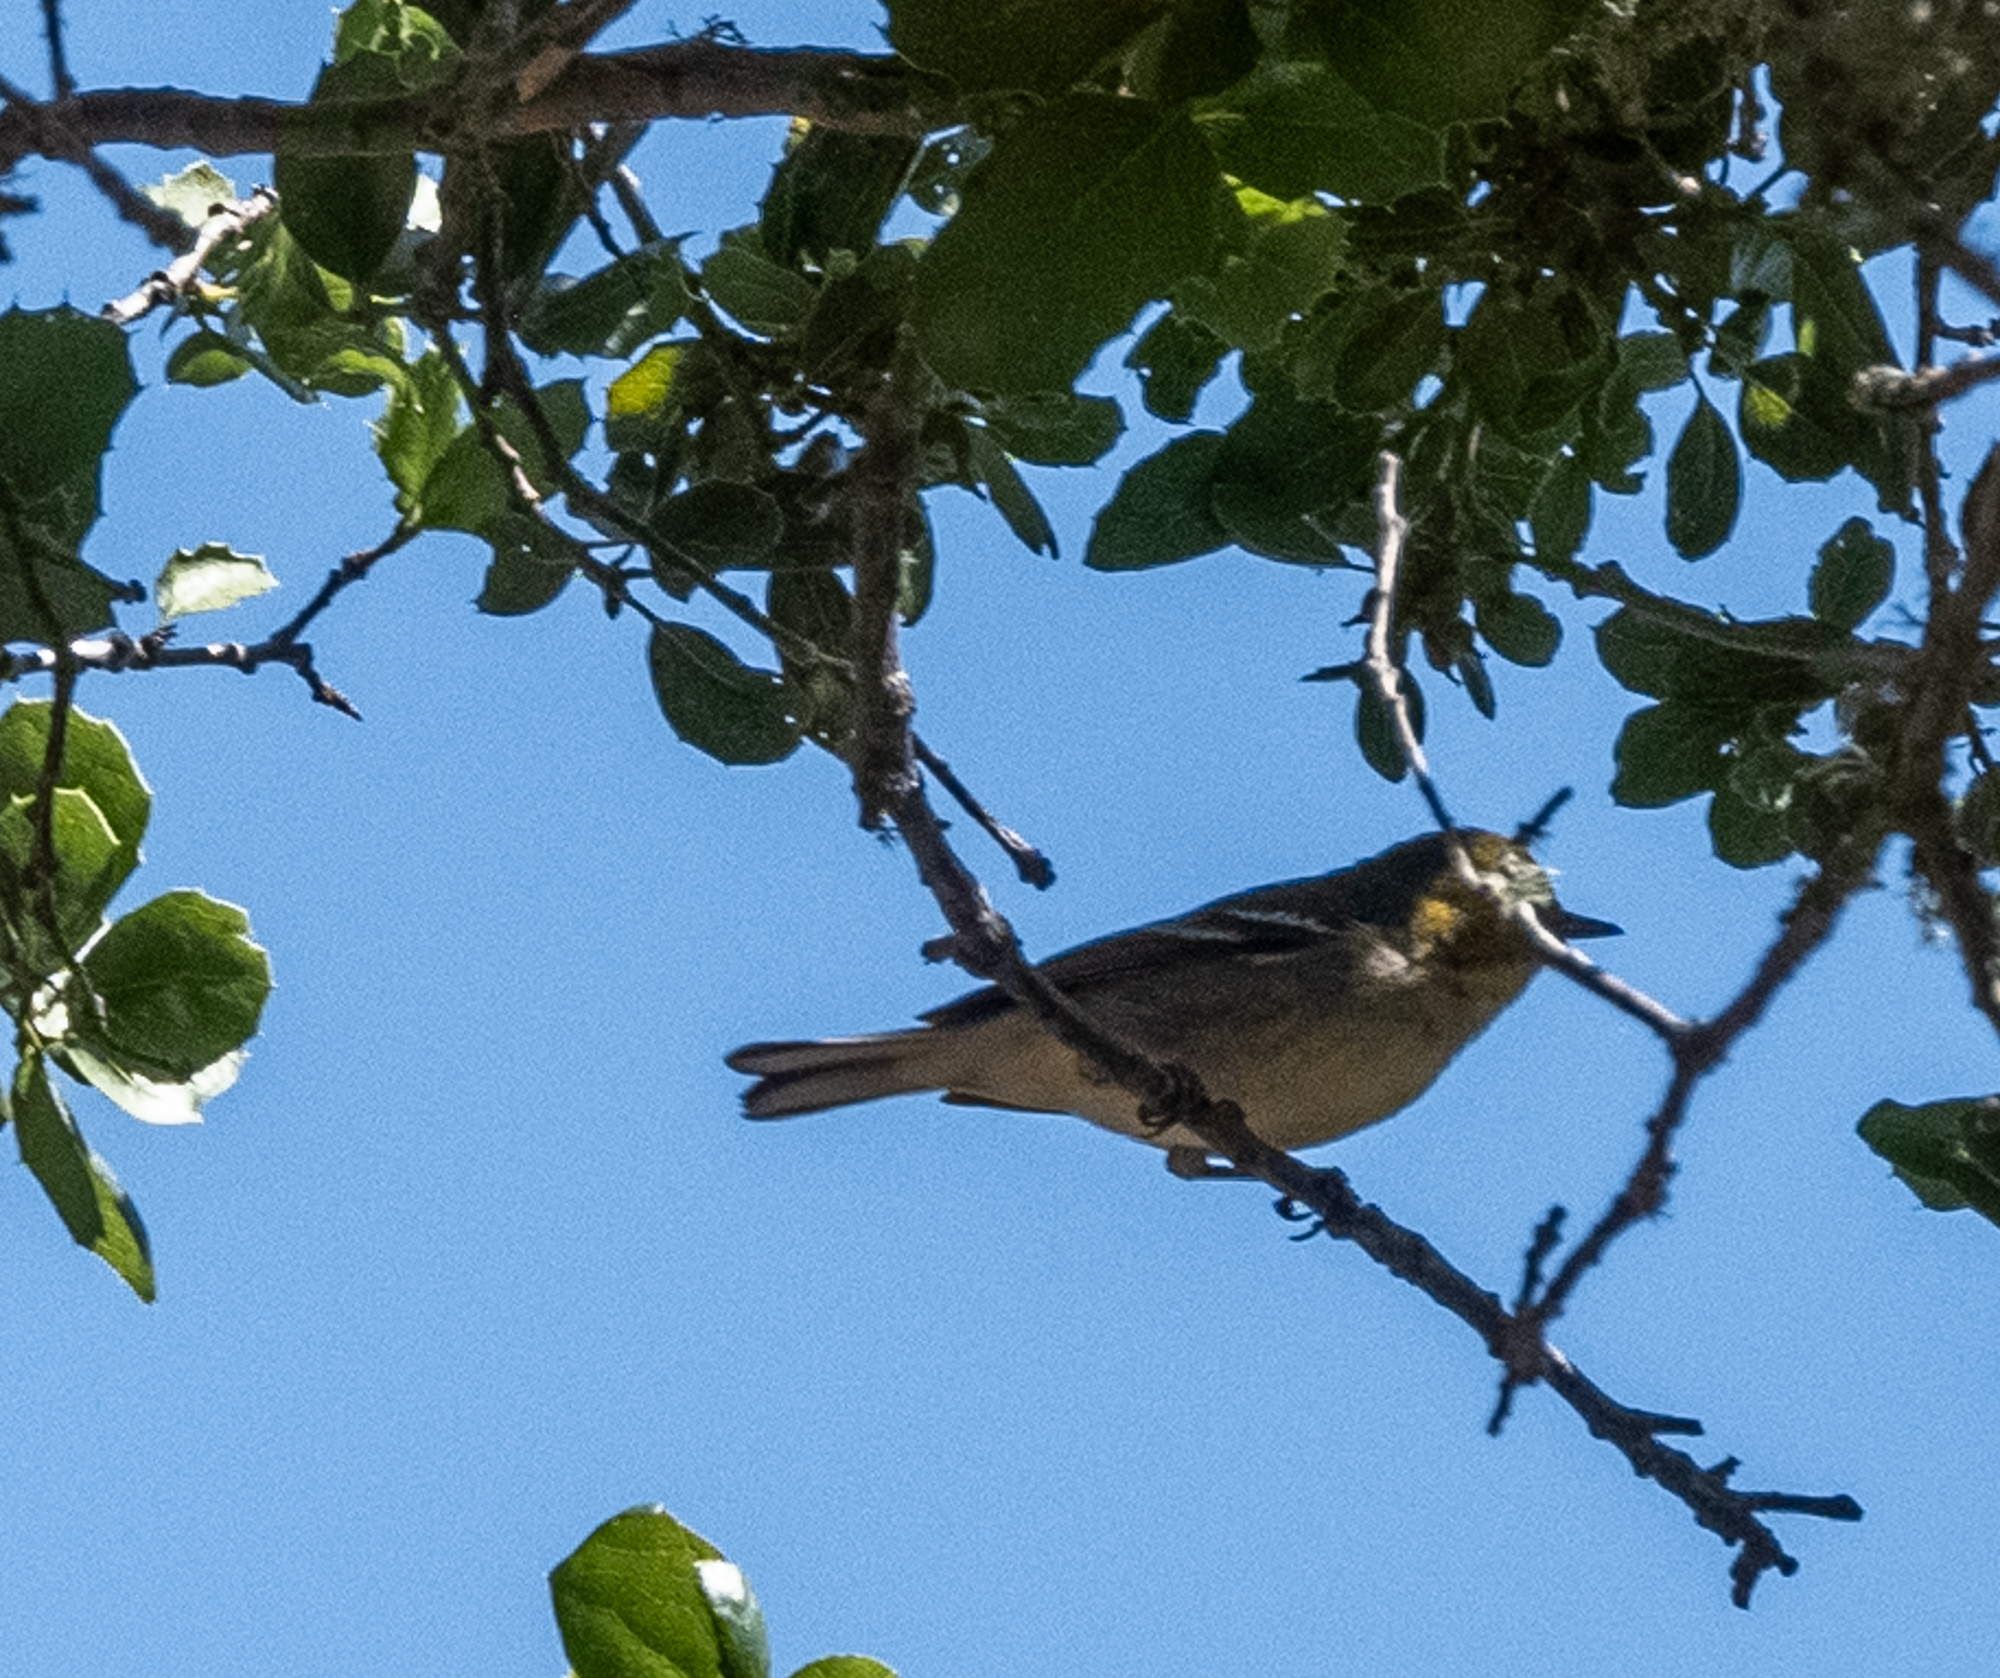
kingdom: Animalia
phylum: Chordata
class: Aves
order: Passeriformes
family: Parulidae
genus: Setophaga
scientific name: Setophaga occidentalis
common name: Hermit warbler
